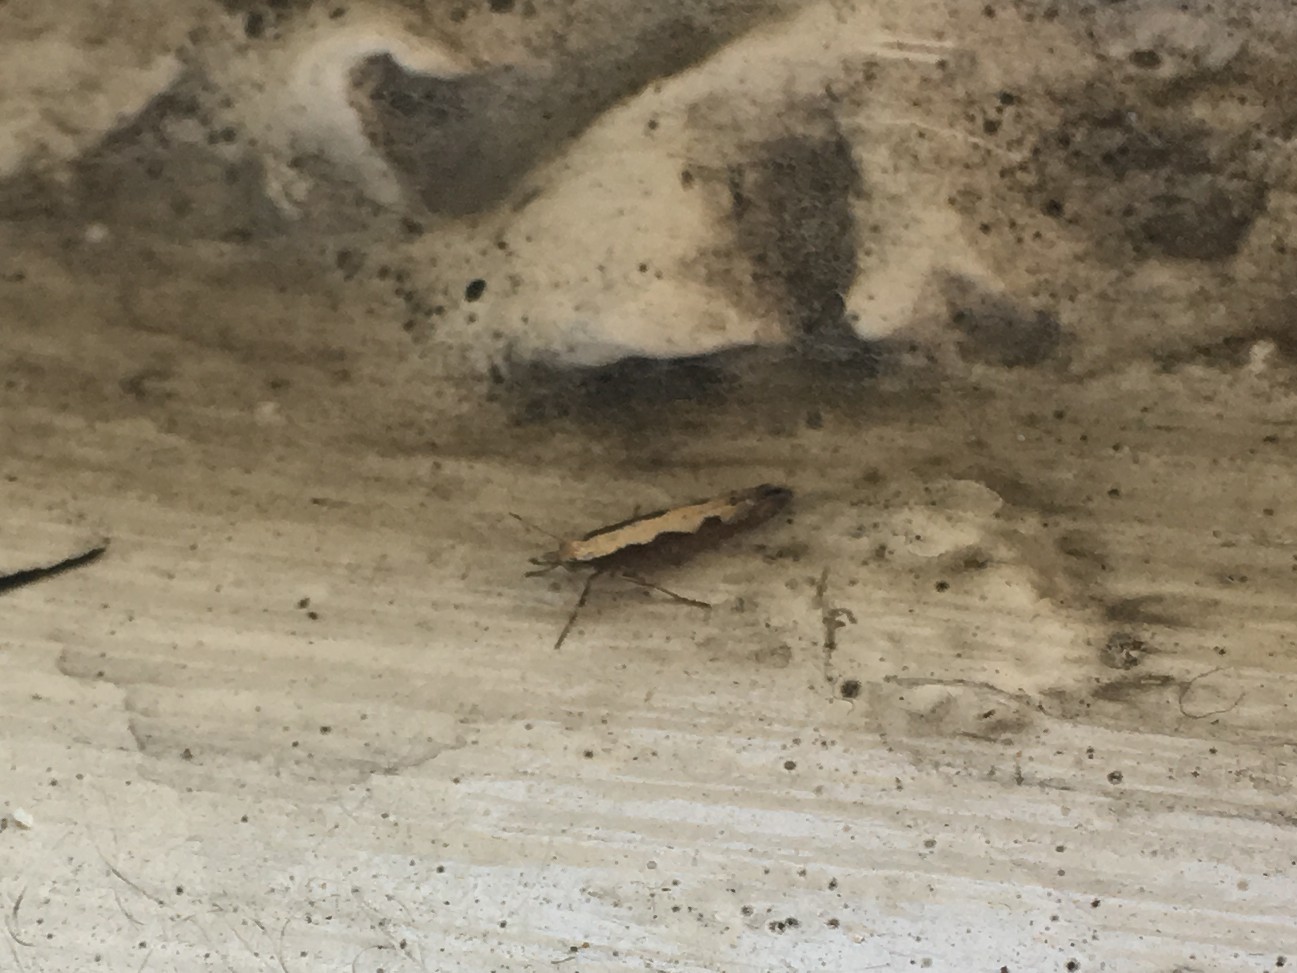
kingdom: Animalia
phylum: Arthropoda
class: Insecta
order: Lepidoptera
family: Plutellidae
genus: Plutella
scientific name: Plutella xylostella
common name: Diamond-back moth
